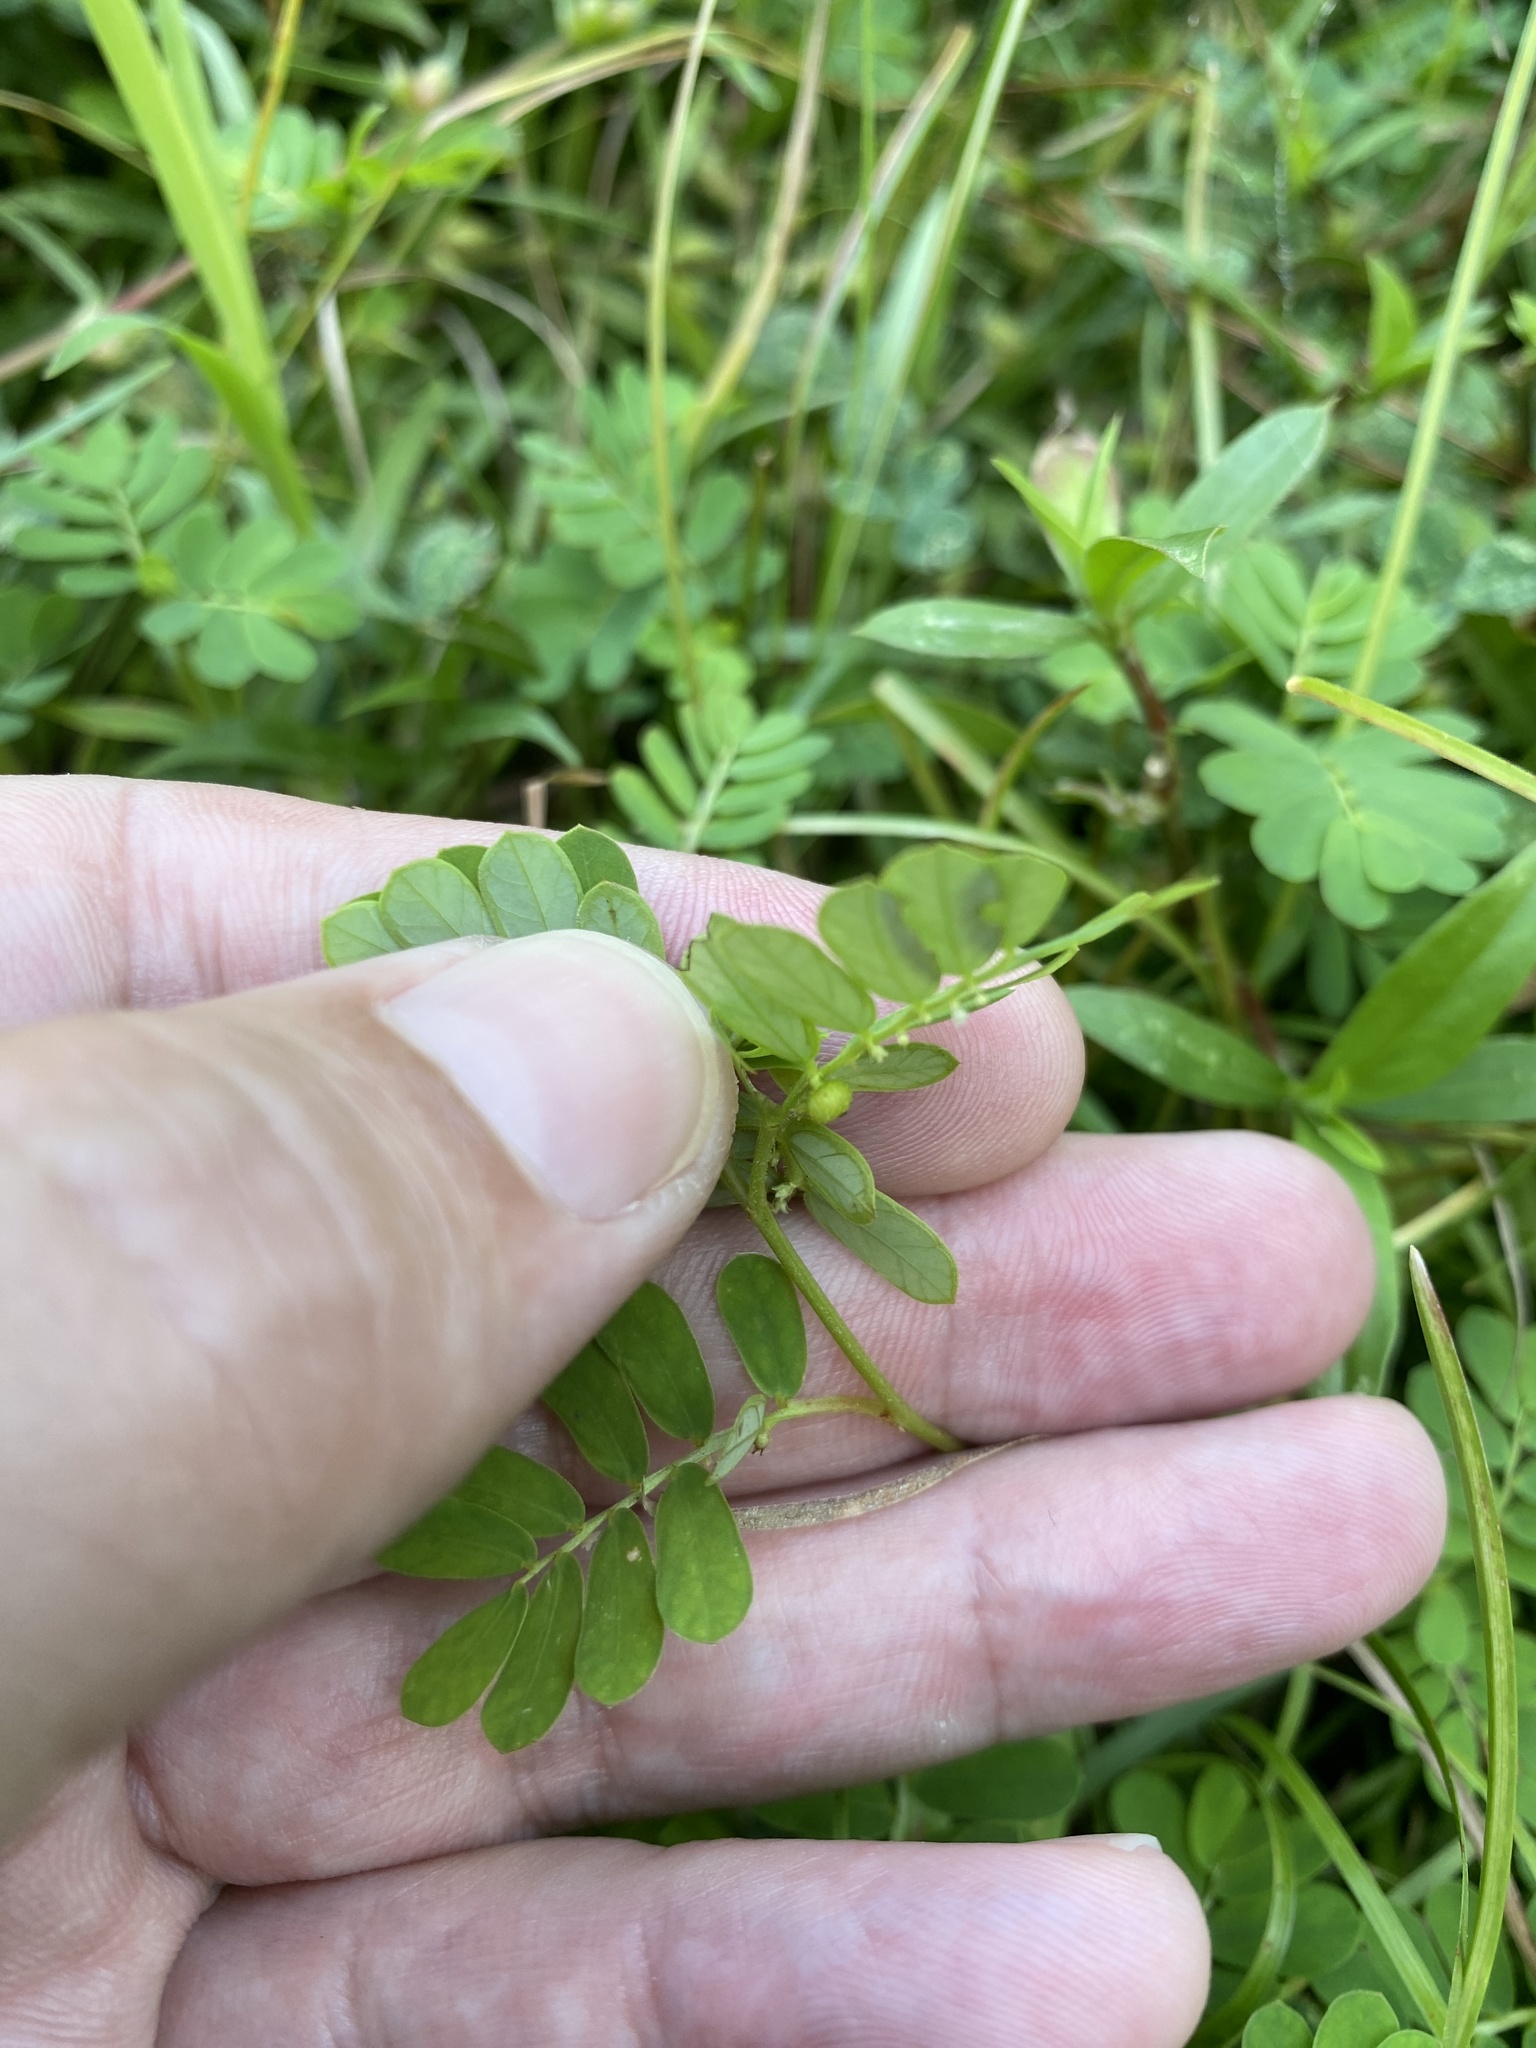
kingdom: Plantae
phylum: Tracheophyta
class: Magnoliopsida
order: Malpighiales
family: Phyllanthaceae
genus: Phyllanthus
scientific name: Phyllanthus urinaria
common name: Chamber bitter
